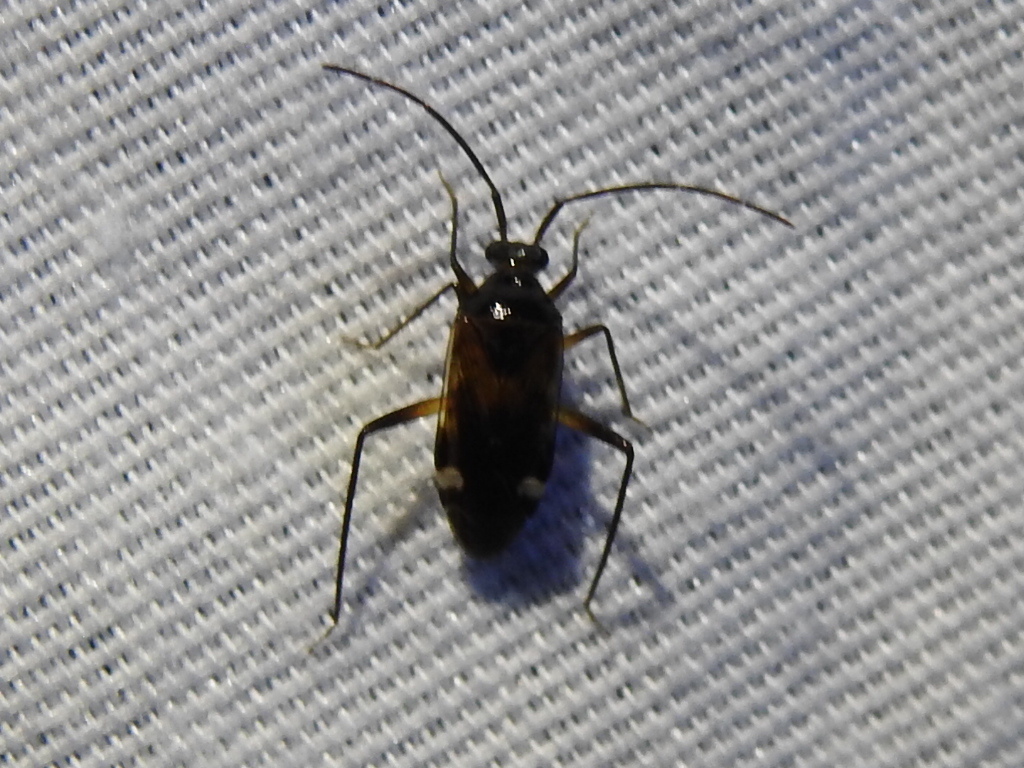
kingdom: Animalia
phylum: Arthropoda
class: Insecta
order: Hemiptera
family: Miridae
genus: Eustictus
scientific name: Eustictus knighti
